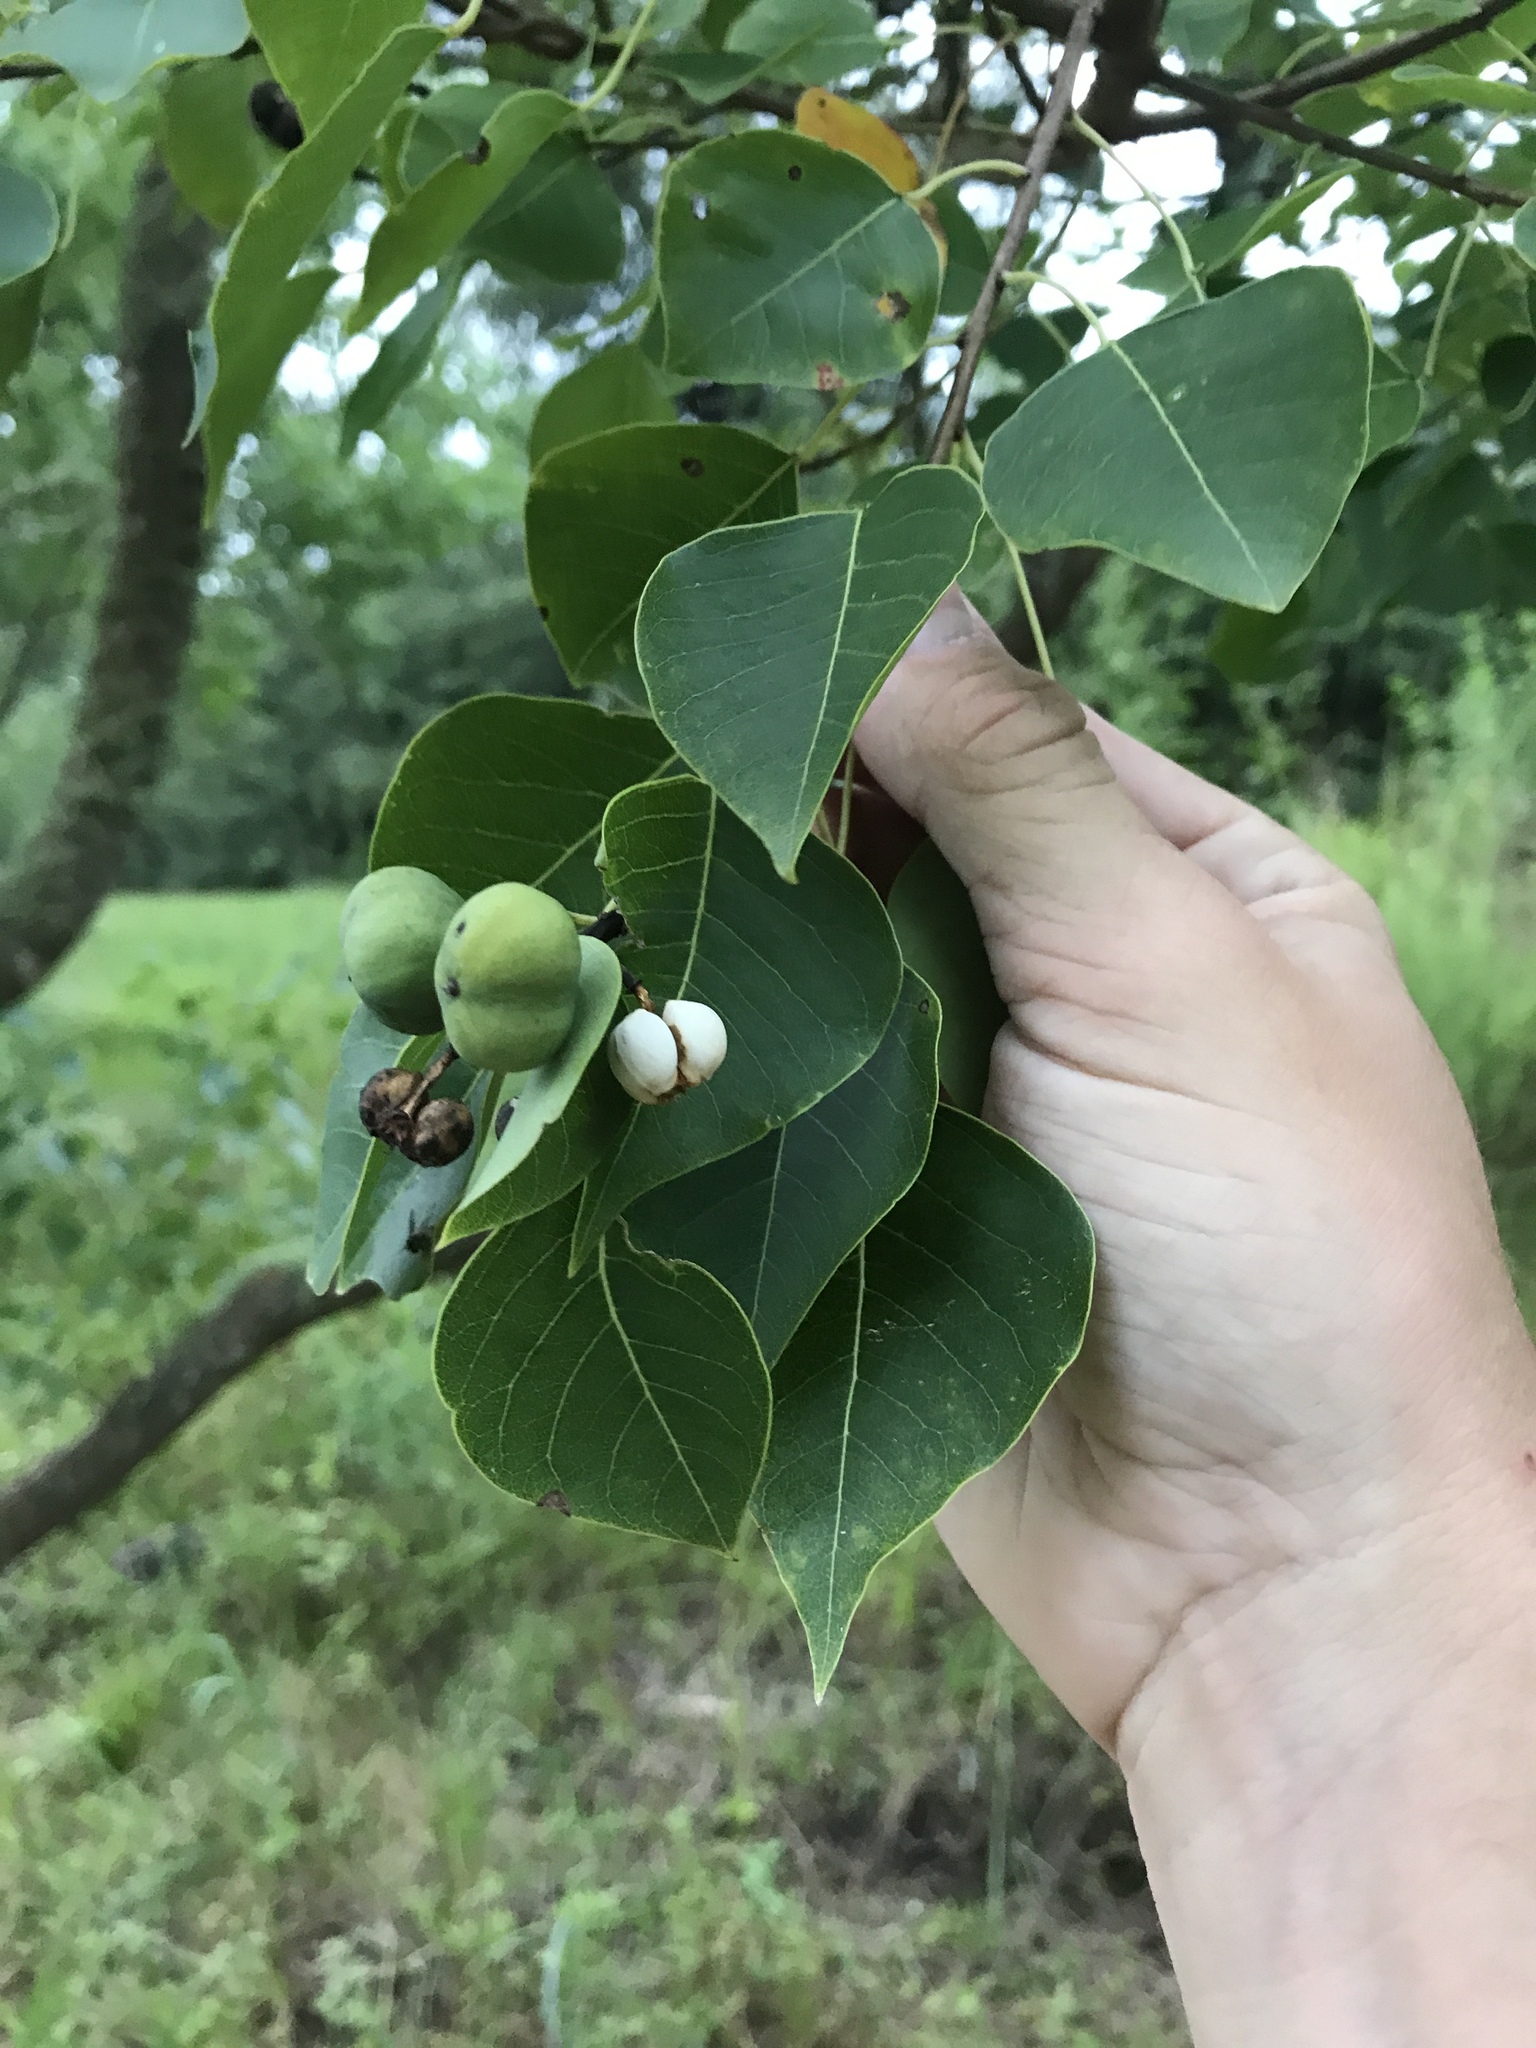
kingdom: Plantae
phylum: Tracheophyta
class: Magnoliopsida
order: Malpighiales
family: Euphorbiaceae
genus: Triadica
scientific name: Triadica sebifera
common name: Chinese tallow
